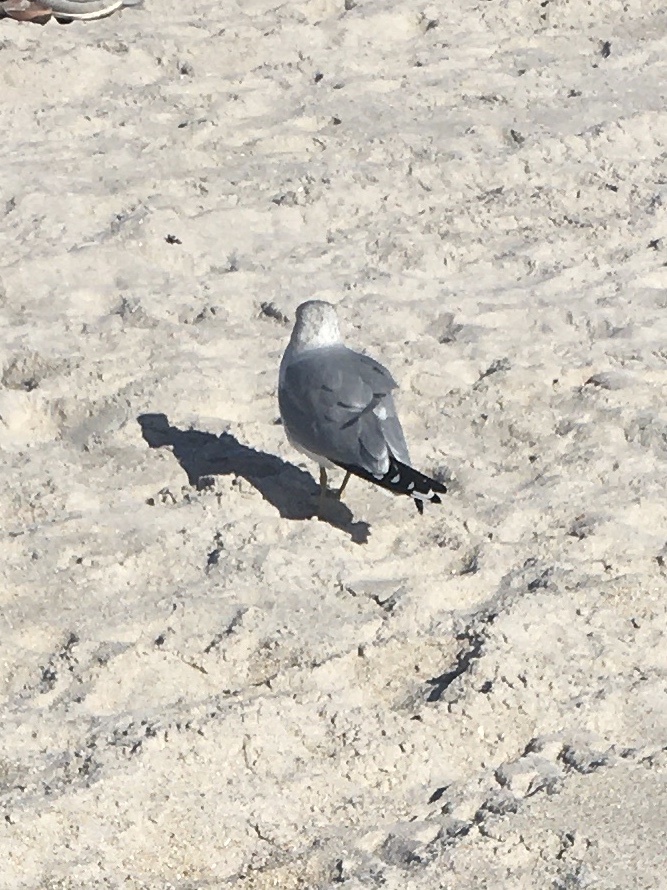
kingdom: Animalia
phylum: Chordata
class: Aves
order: Charadriiformes
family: Laridae
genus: Larus
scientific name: Larus delawarensis
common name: Ring-billed gull
